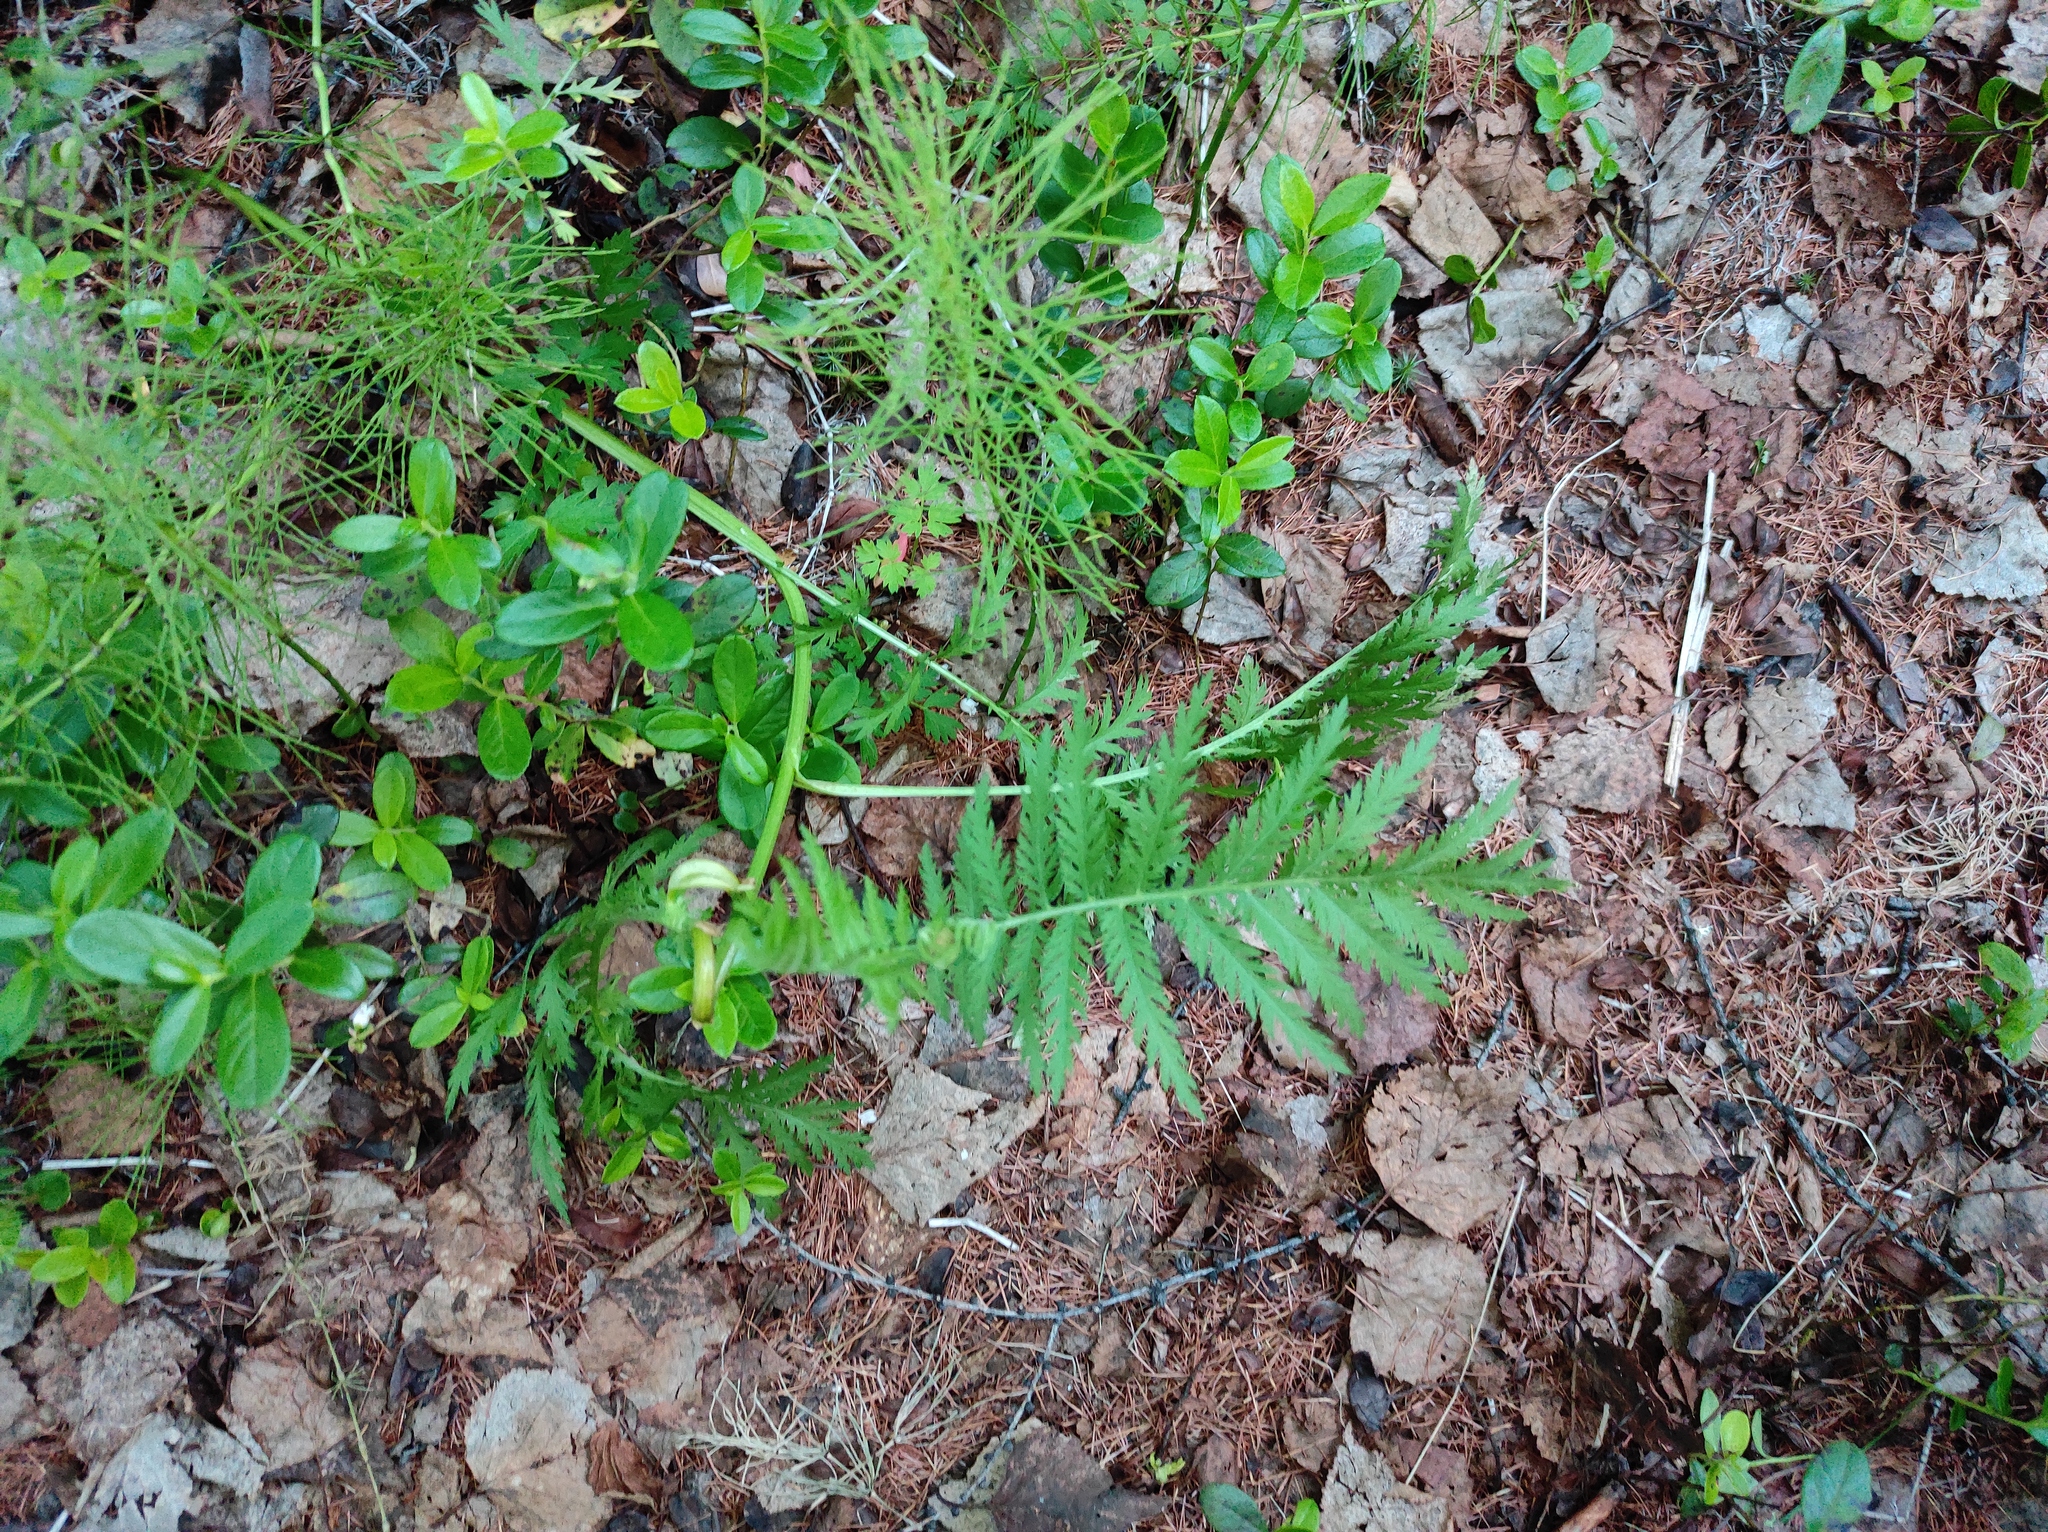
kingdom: Plantae
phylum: Tracheophyta
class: Magnoliopsida
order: Ericales
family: Ericaceae
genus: Vaccinium
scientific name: Vaccinium vitis-idaea
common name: Cowberry
